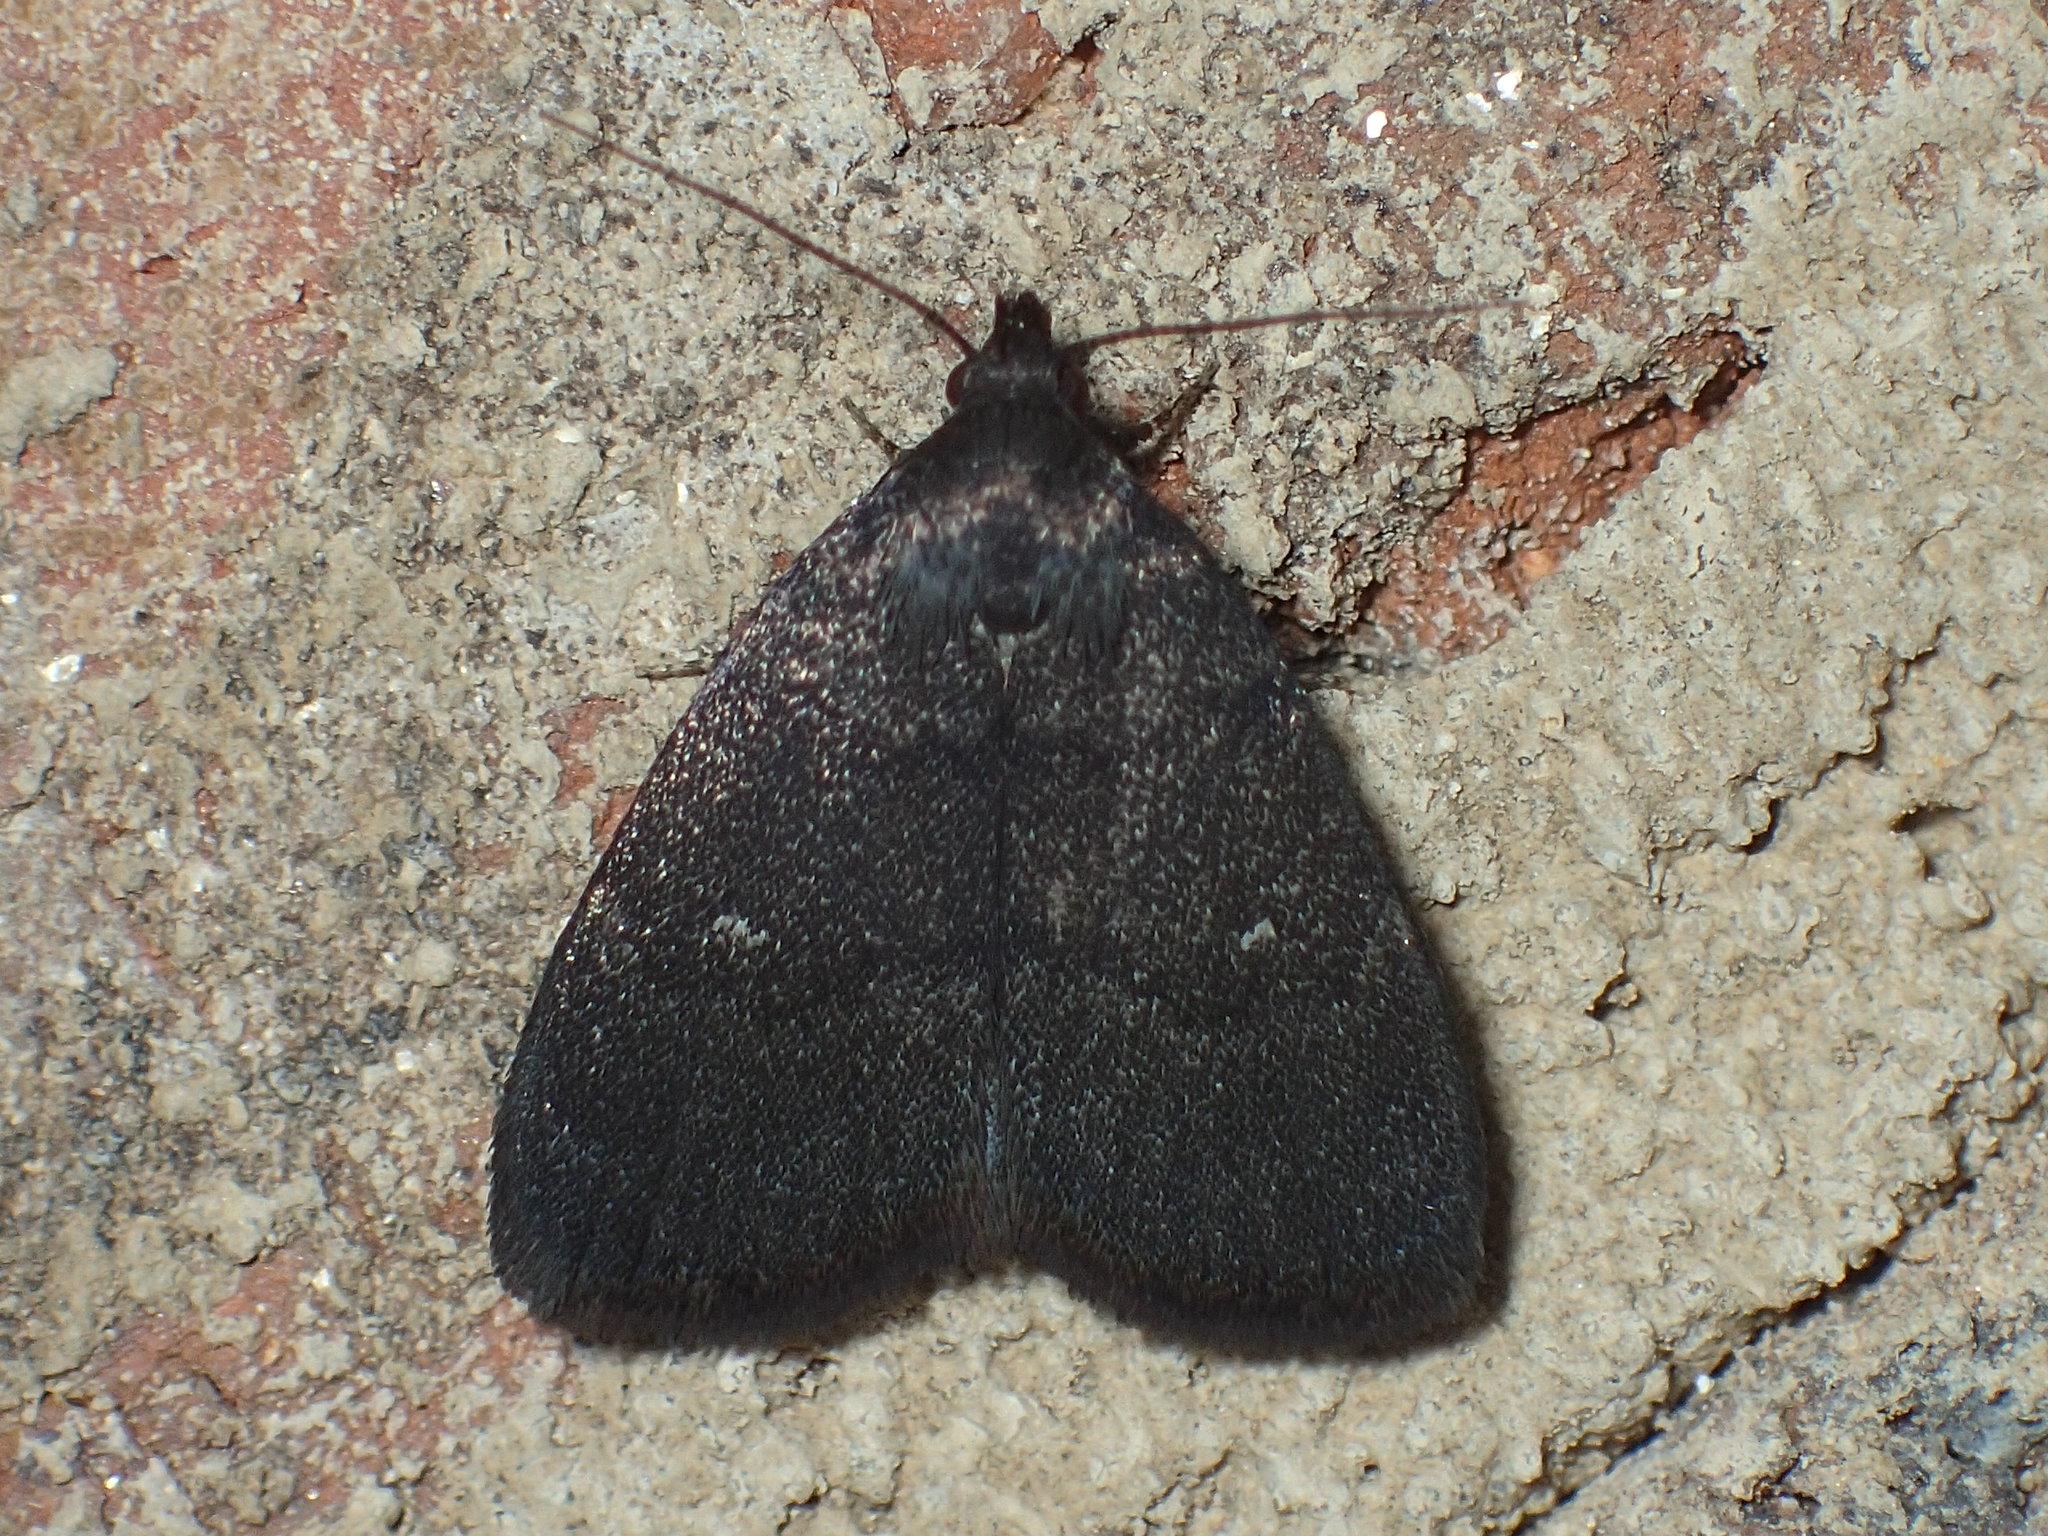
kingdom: Animalia
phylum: Arthropoda
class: Insecta
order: Lepidoptera
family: Erebidae
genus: Idia
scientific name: Idia rotundalis
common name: Rotund idia moth
